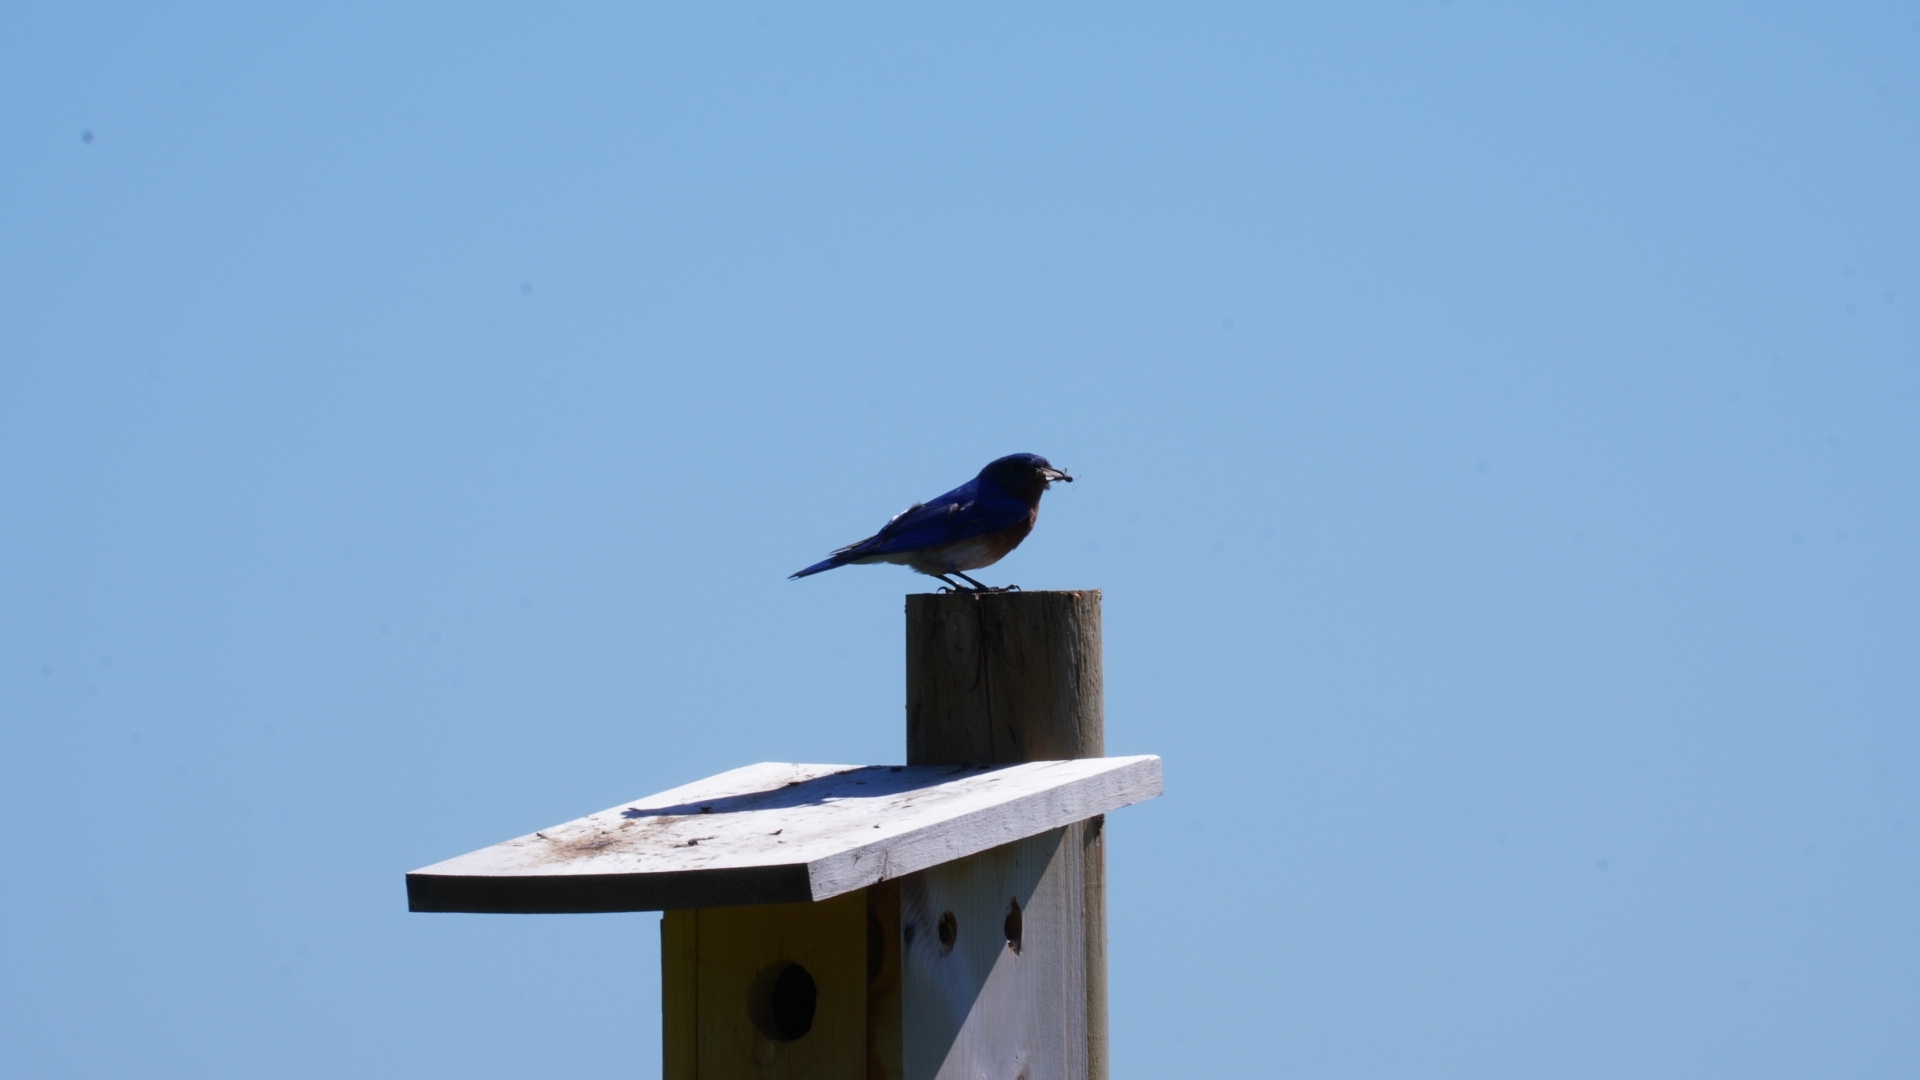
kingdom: Animalia
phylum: Chordata
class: Aves
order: Passeriformes
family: Turdidae
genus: Sialia
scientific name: Sialia sialis
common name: Eastern bluebird
